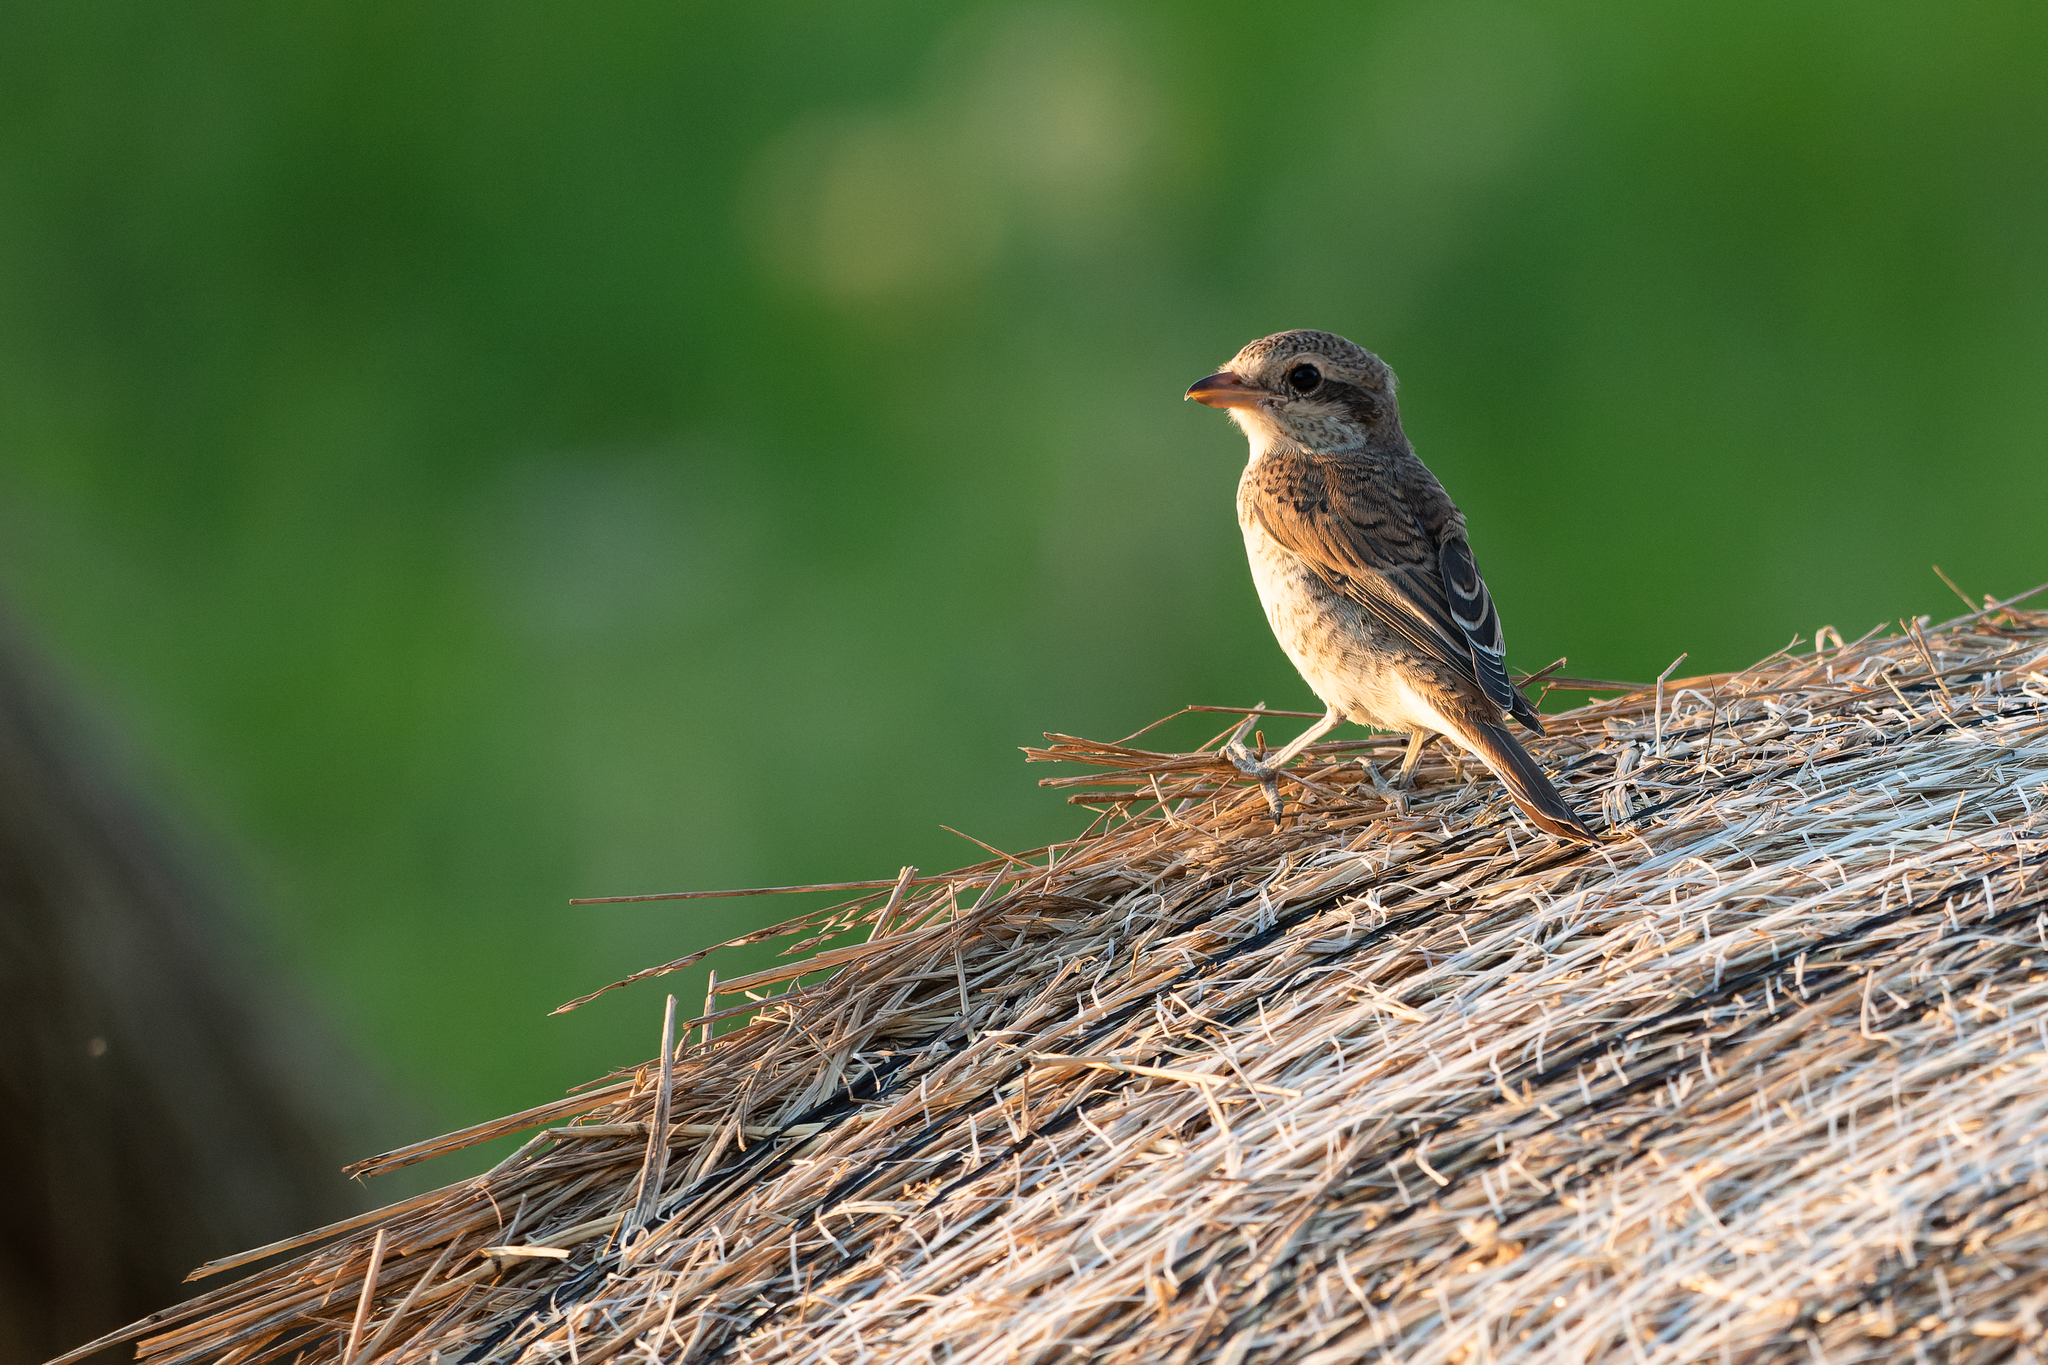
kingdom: Animalia
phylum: Chordata
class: Aves
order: Passeriformes
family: Laniidae
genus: Lanius
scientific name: Lanius collurio
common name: Red-backed shrike
